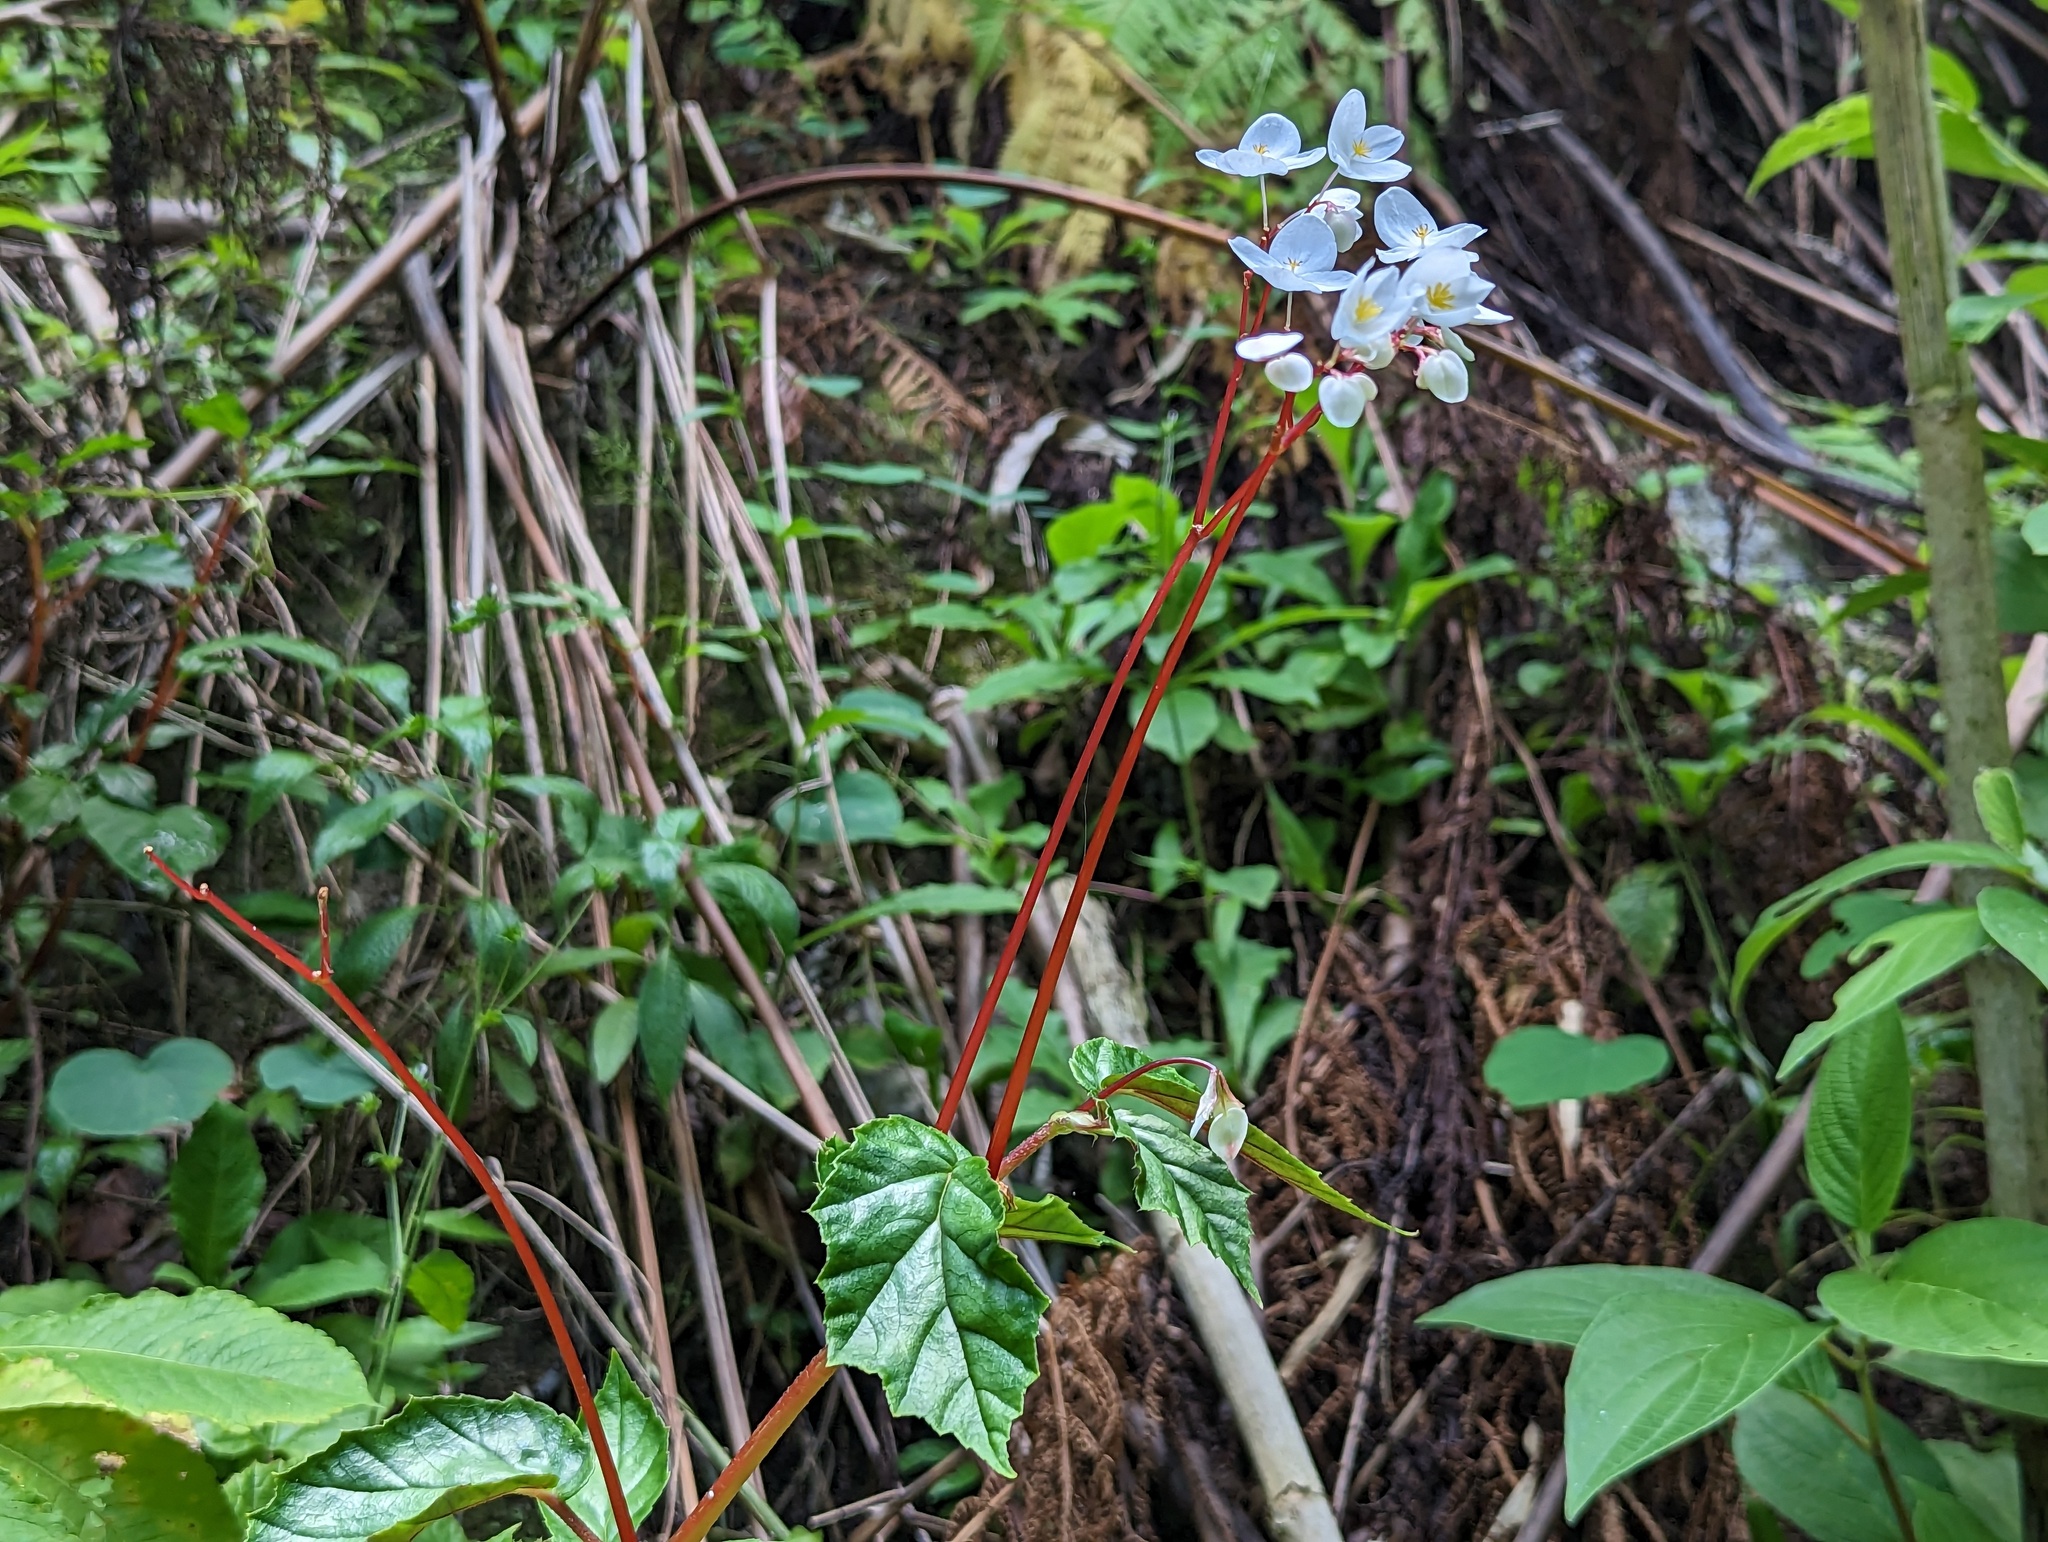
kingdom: Plantae
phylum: Tracheophyta
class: Magnoliopsida
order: Cucurbitales
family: Begoniaceae
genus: Begonia
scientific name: Begonia decandra
